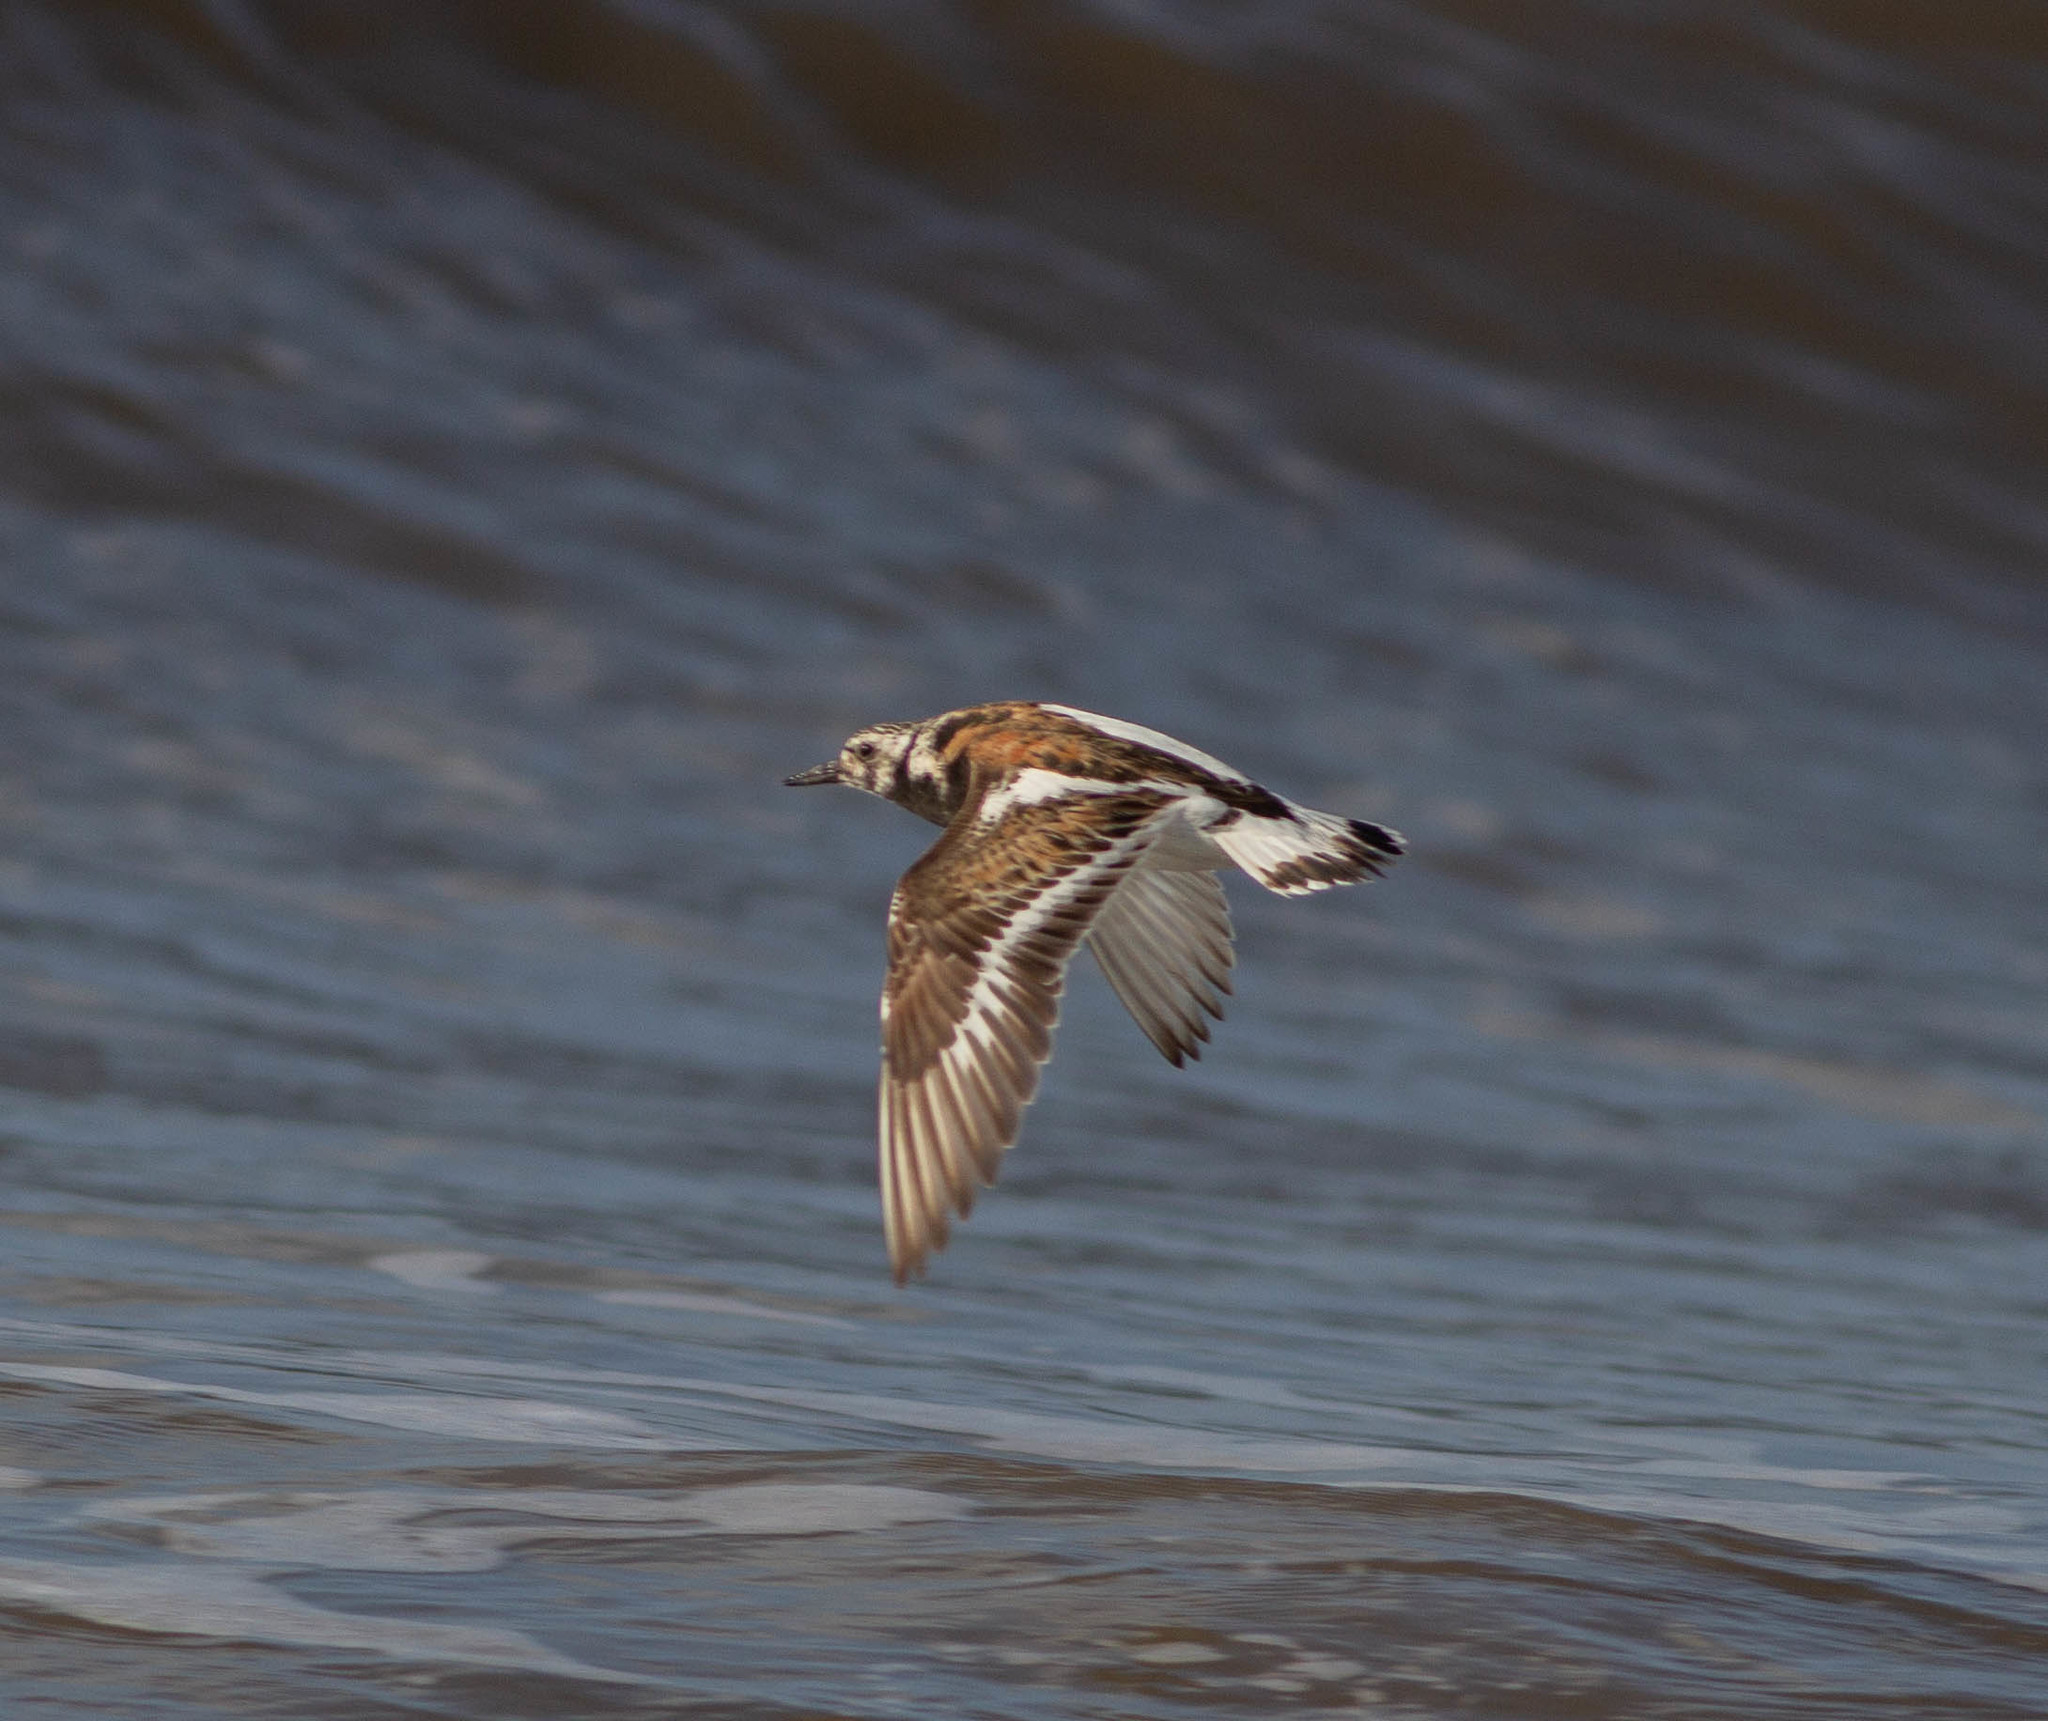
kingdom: Animalia
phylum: Chordata
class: Aves
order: Charadriiformes
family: Scolopacidae
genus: Arenaria
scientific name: Arenaria interpres
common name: Ruddy turnstone
